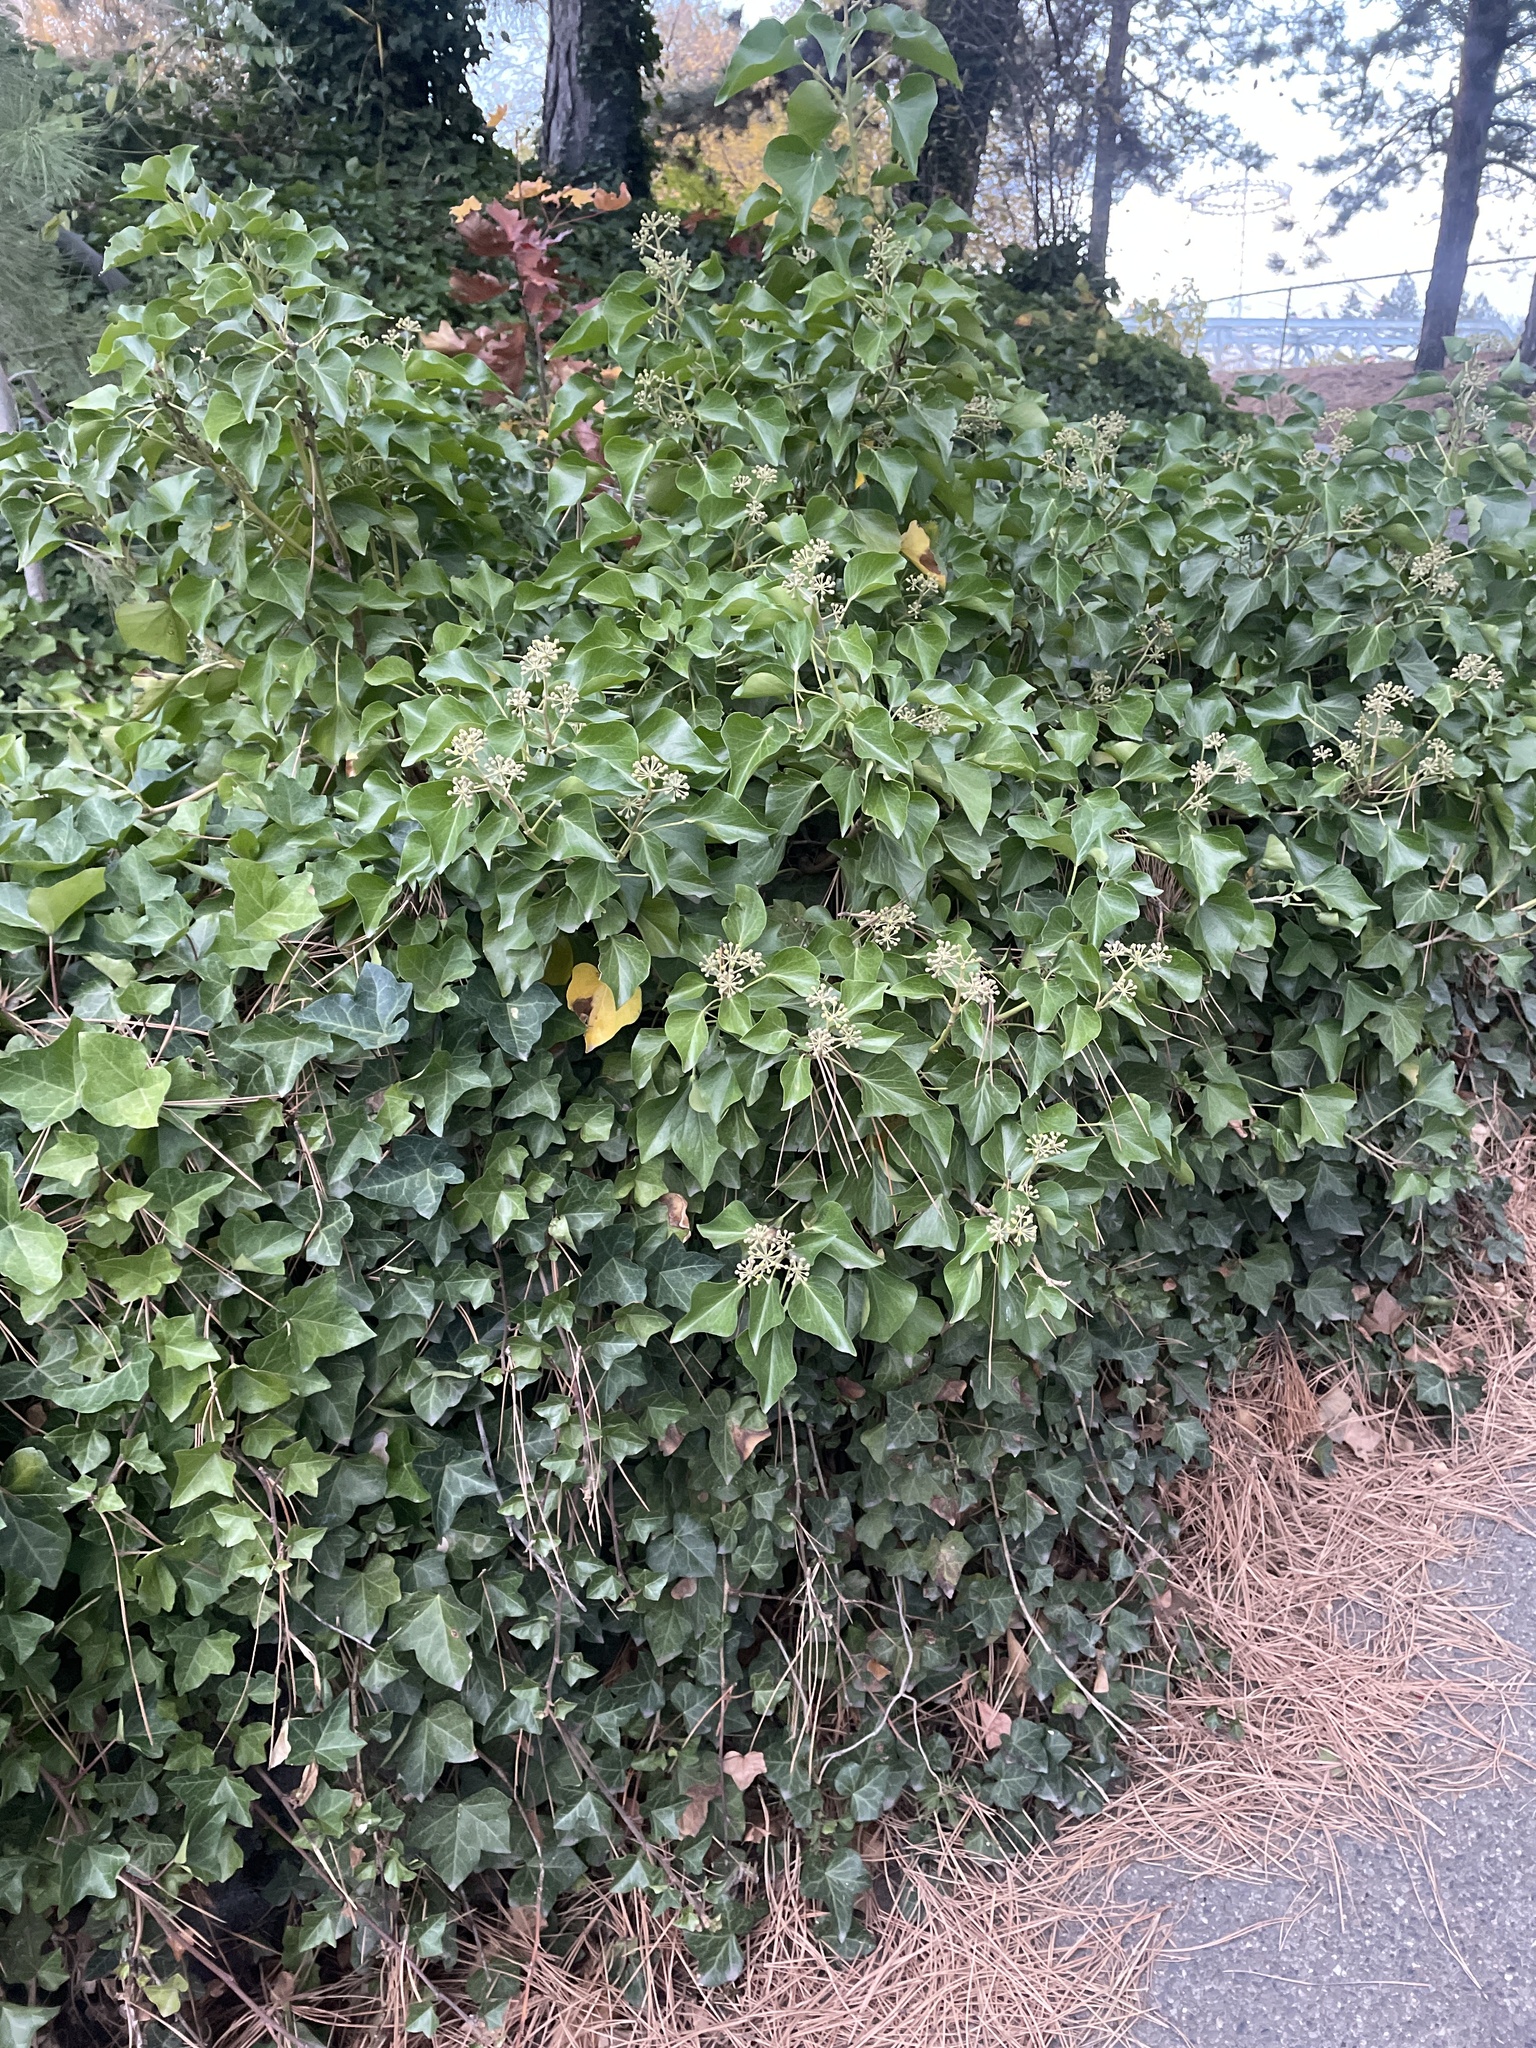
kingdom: Plantae
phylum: Tracheophyta
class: Magnoliopsida
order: Apiales
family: Araliaceae
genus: Hedera
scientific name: Hedera helix
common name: Ivy
